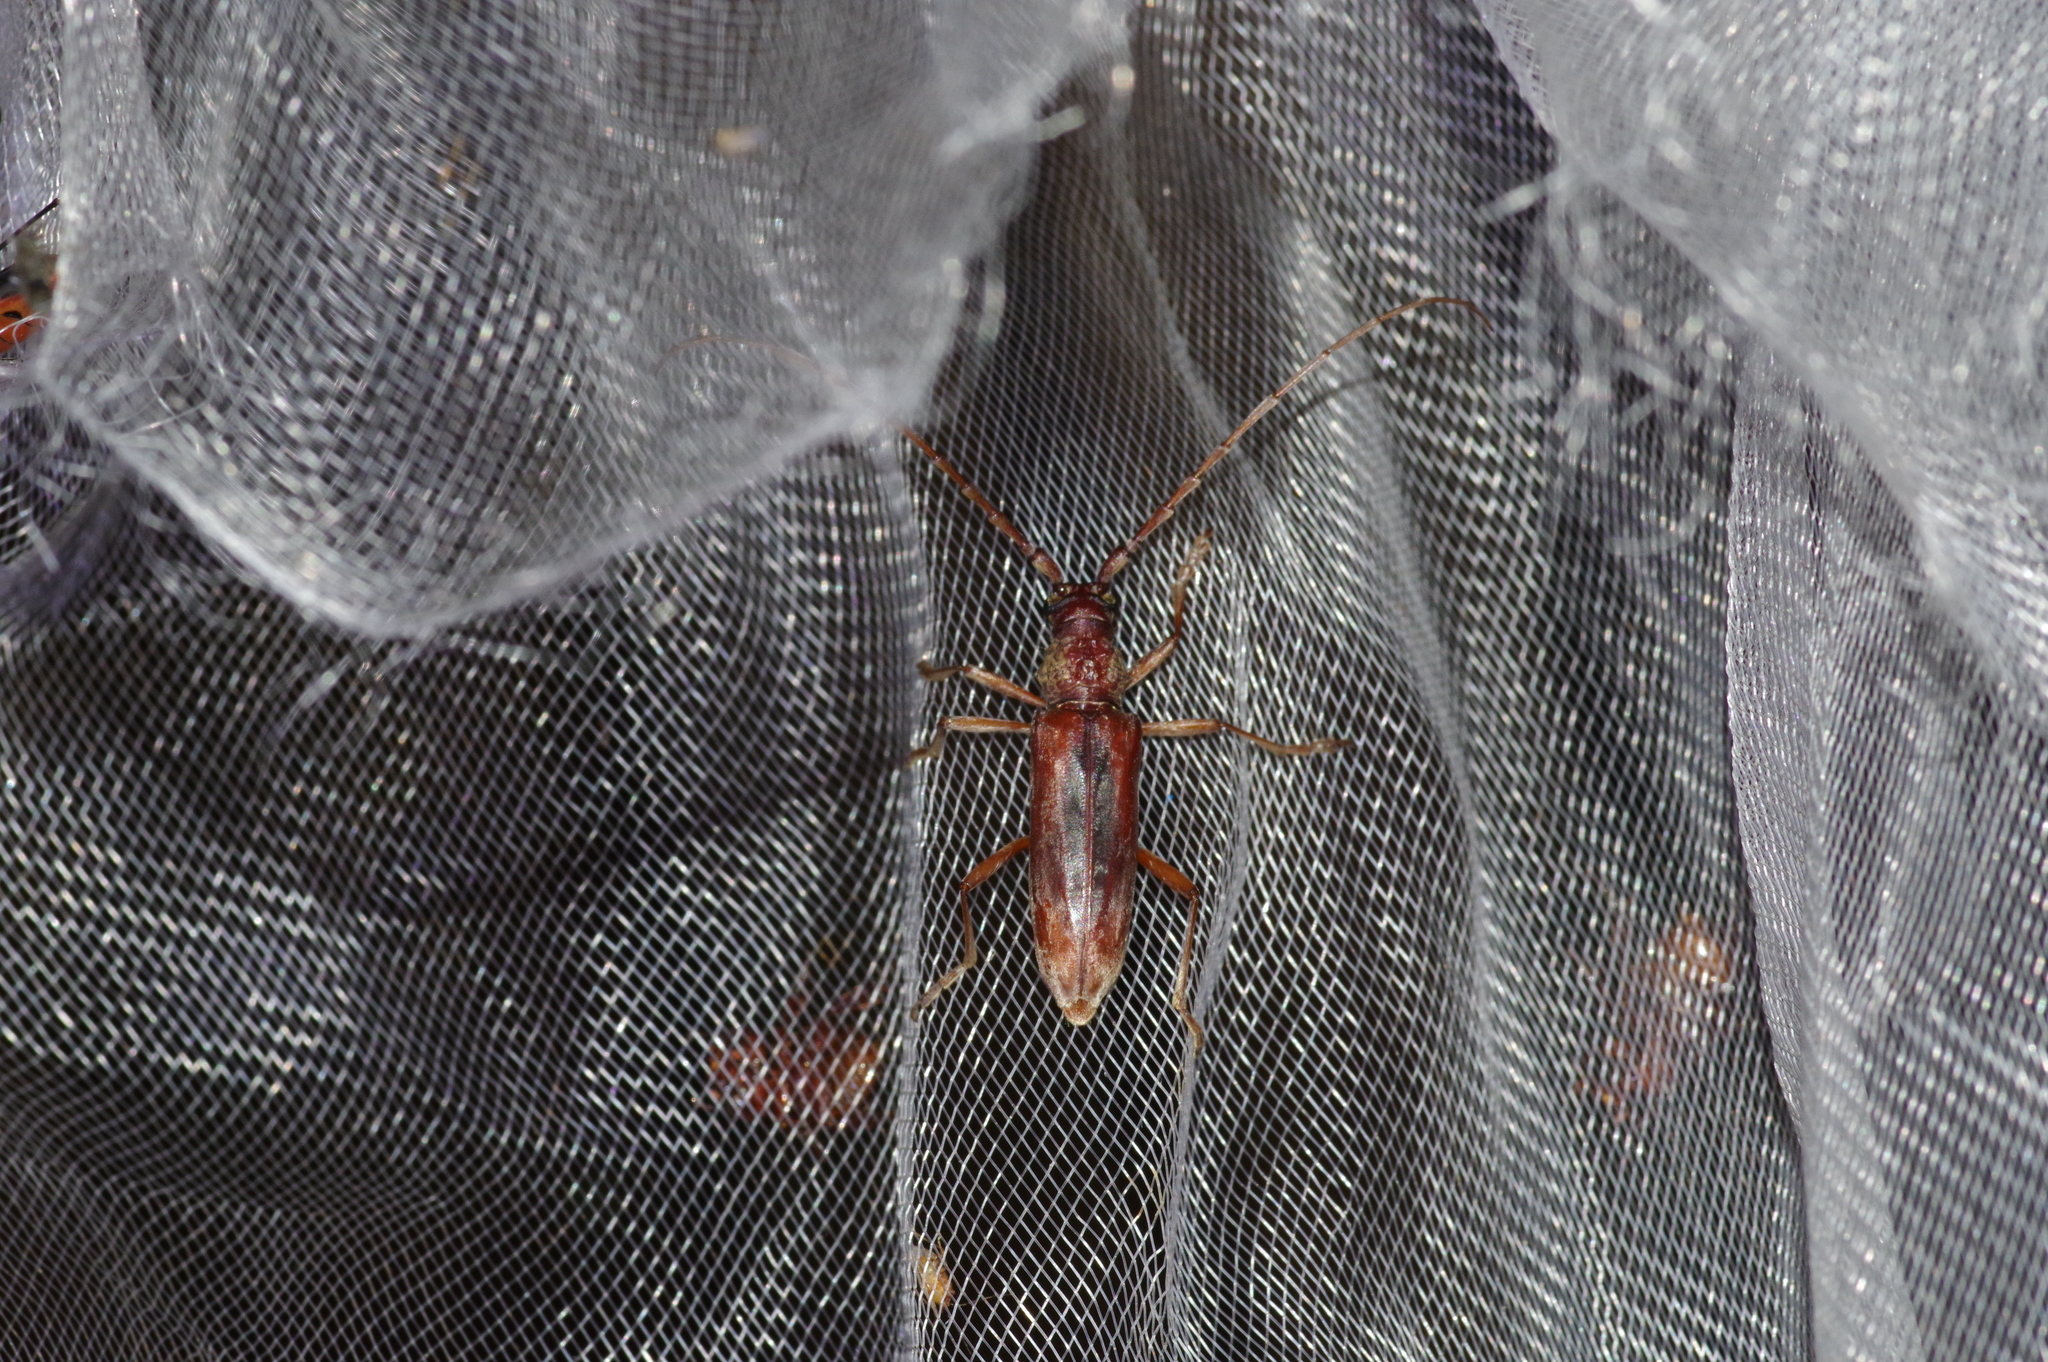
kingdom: Animalia
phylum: Arthropoda
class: Insecta
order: Coleoptera
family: Cerambycidae
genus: Aeolesthes
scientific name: Aeolesthes chrysothrix
